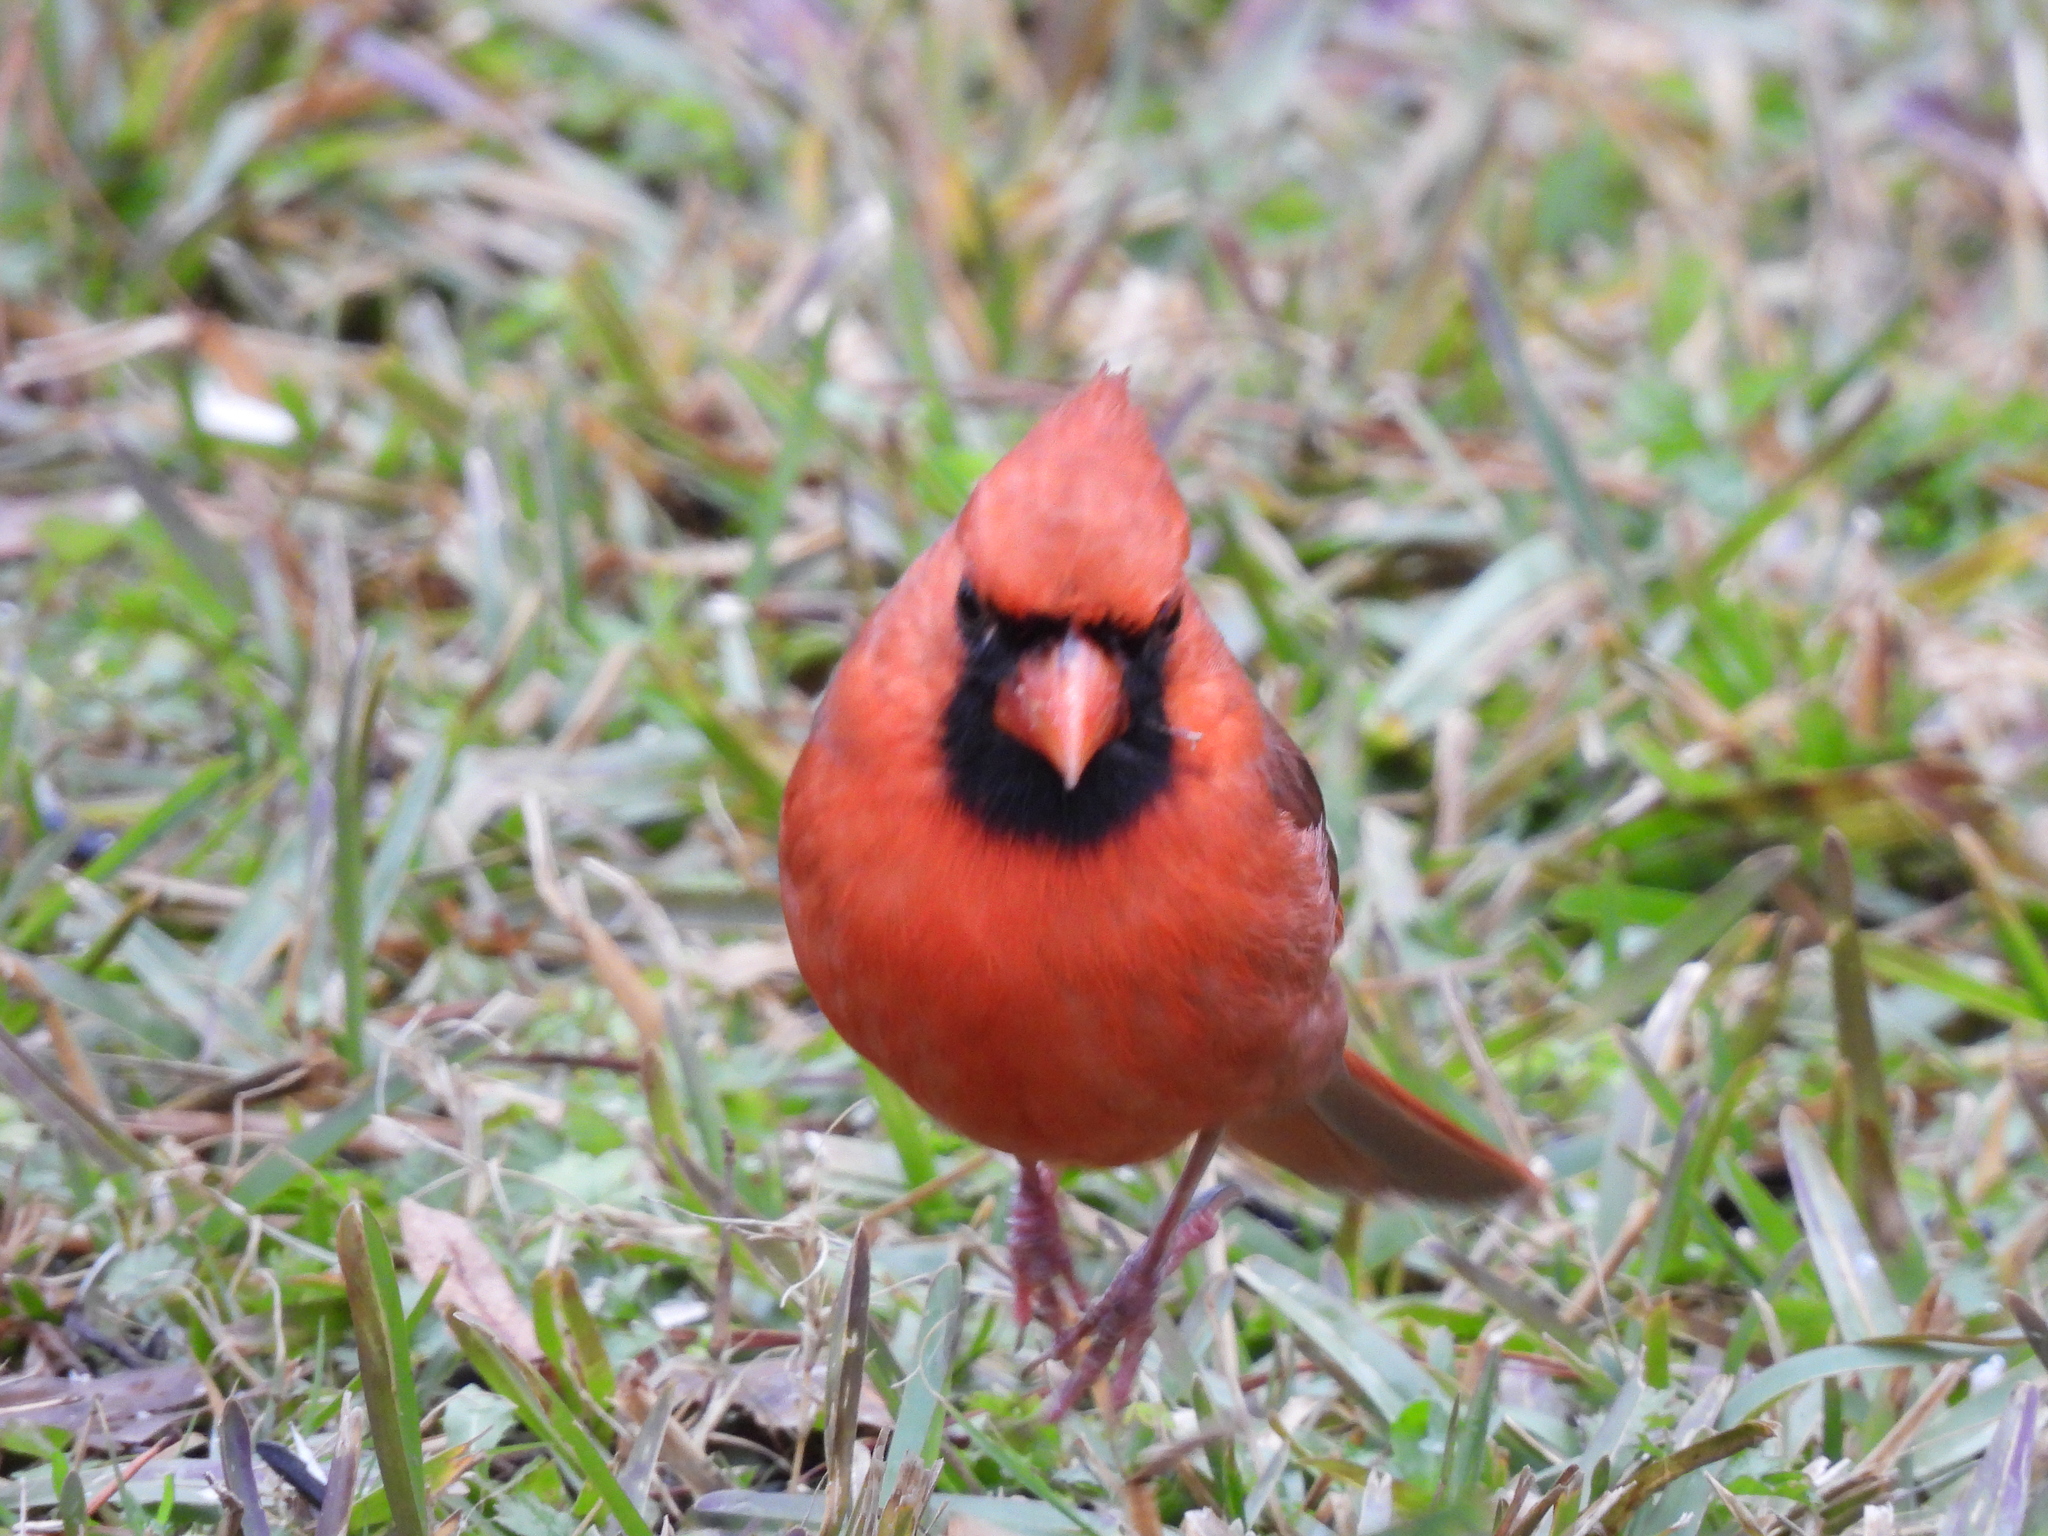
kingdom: Animalia
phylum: Chordata
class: Aves
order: Passeriformes
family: Cardinalidae
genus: Cardinalis
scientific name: Cardinalis cardinalis
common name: Northern cardinal
